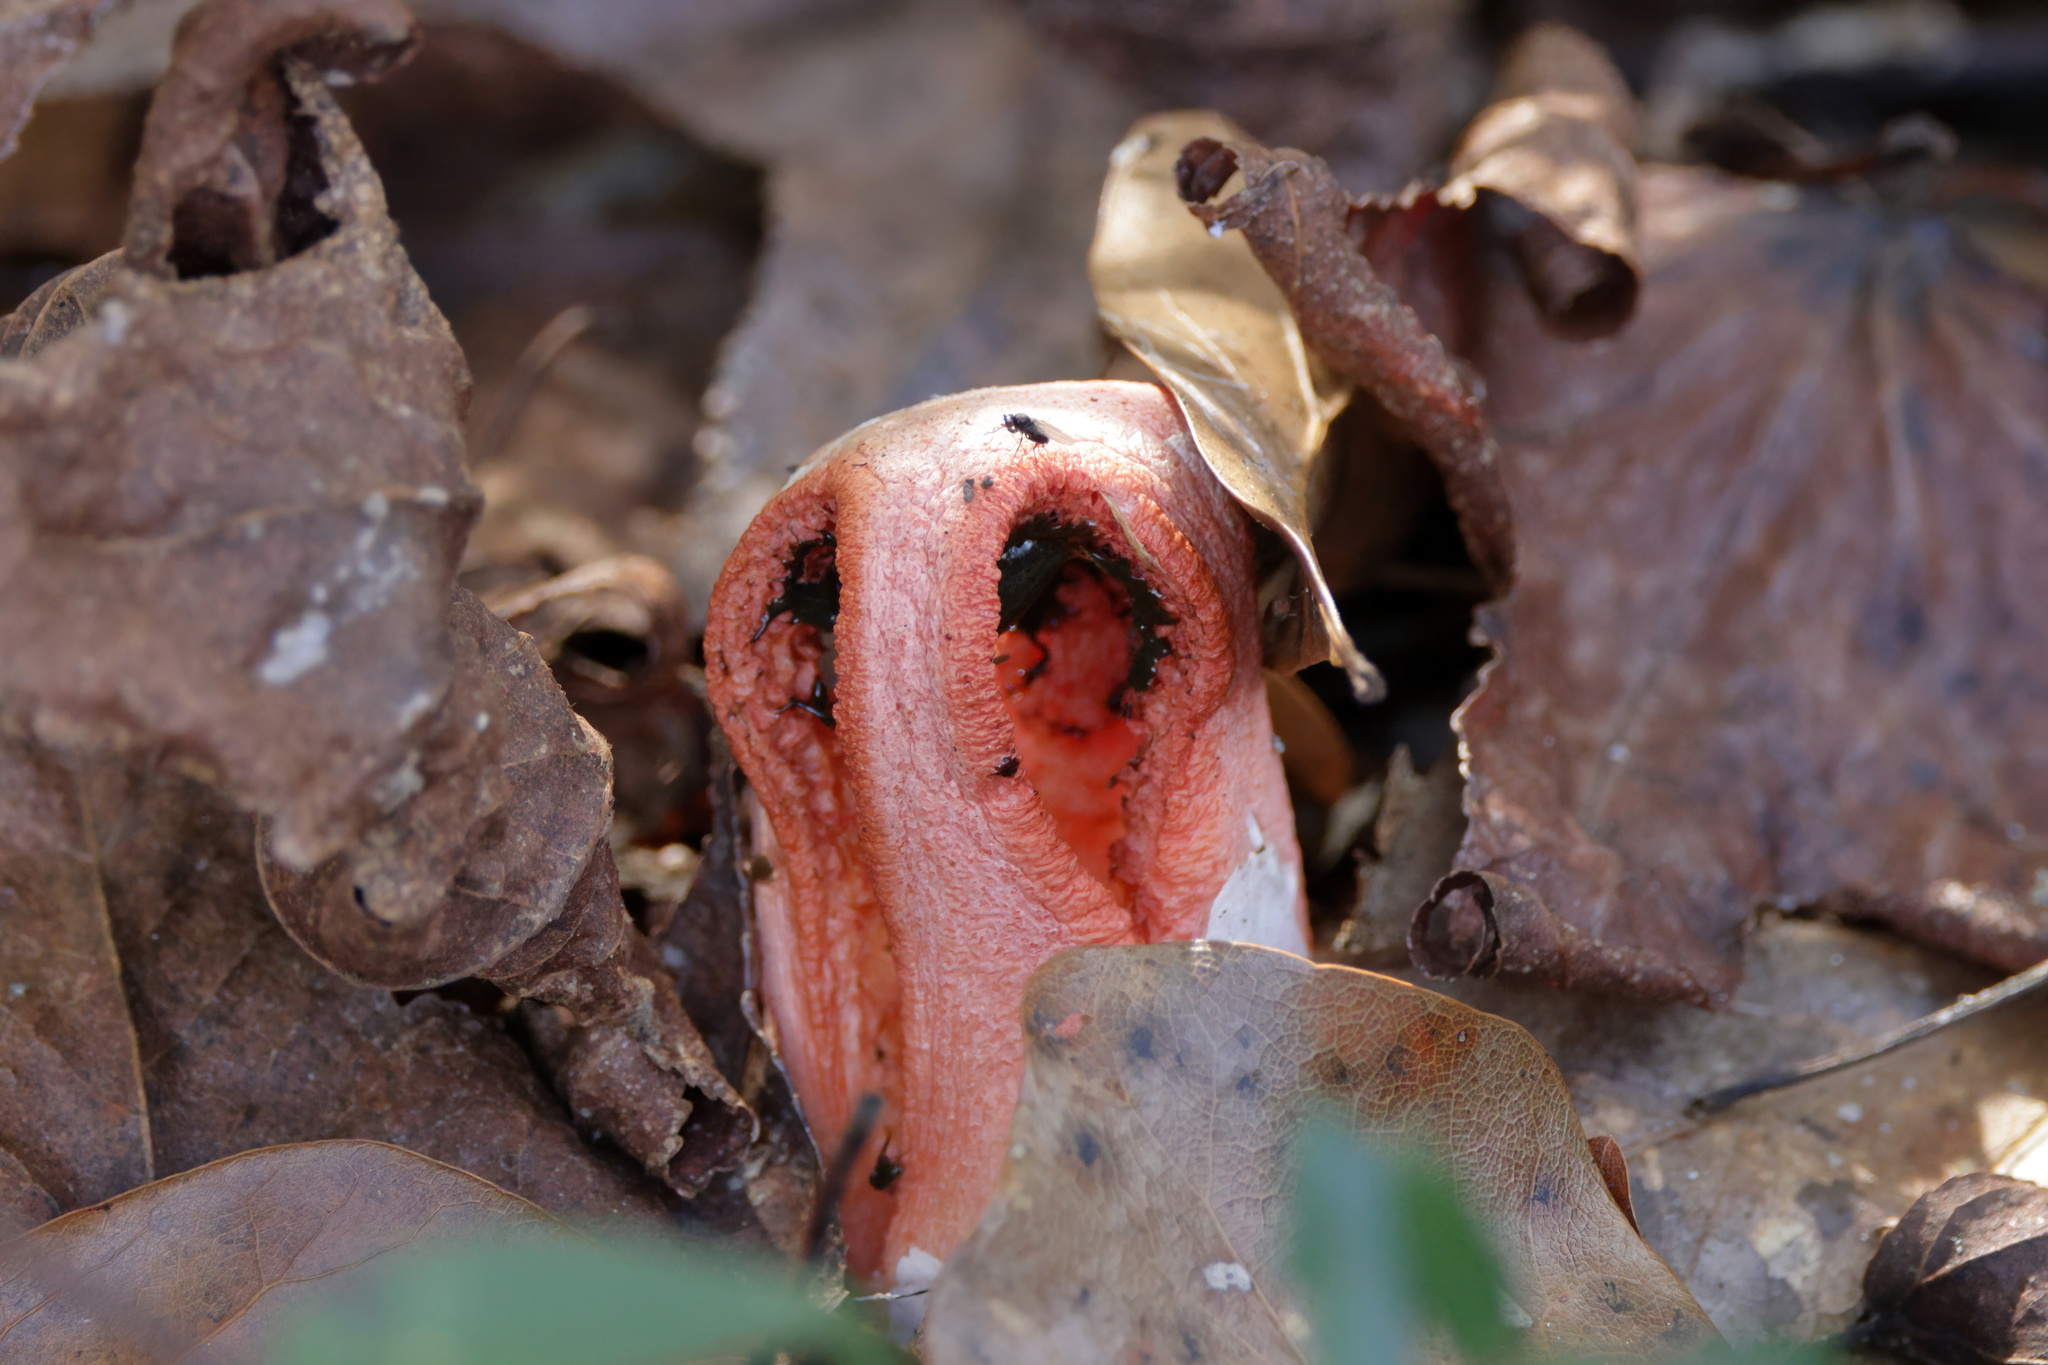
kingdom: Fungi
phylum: Basidiomycota
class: Agaricomycetes
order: Phallales
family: Phallaceae
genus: Clathrus
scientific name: Clathrus columnatus
